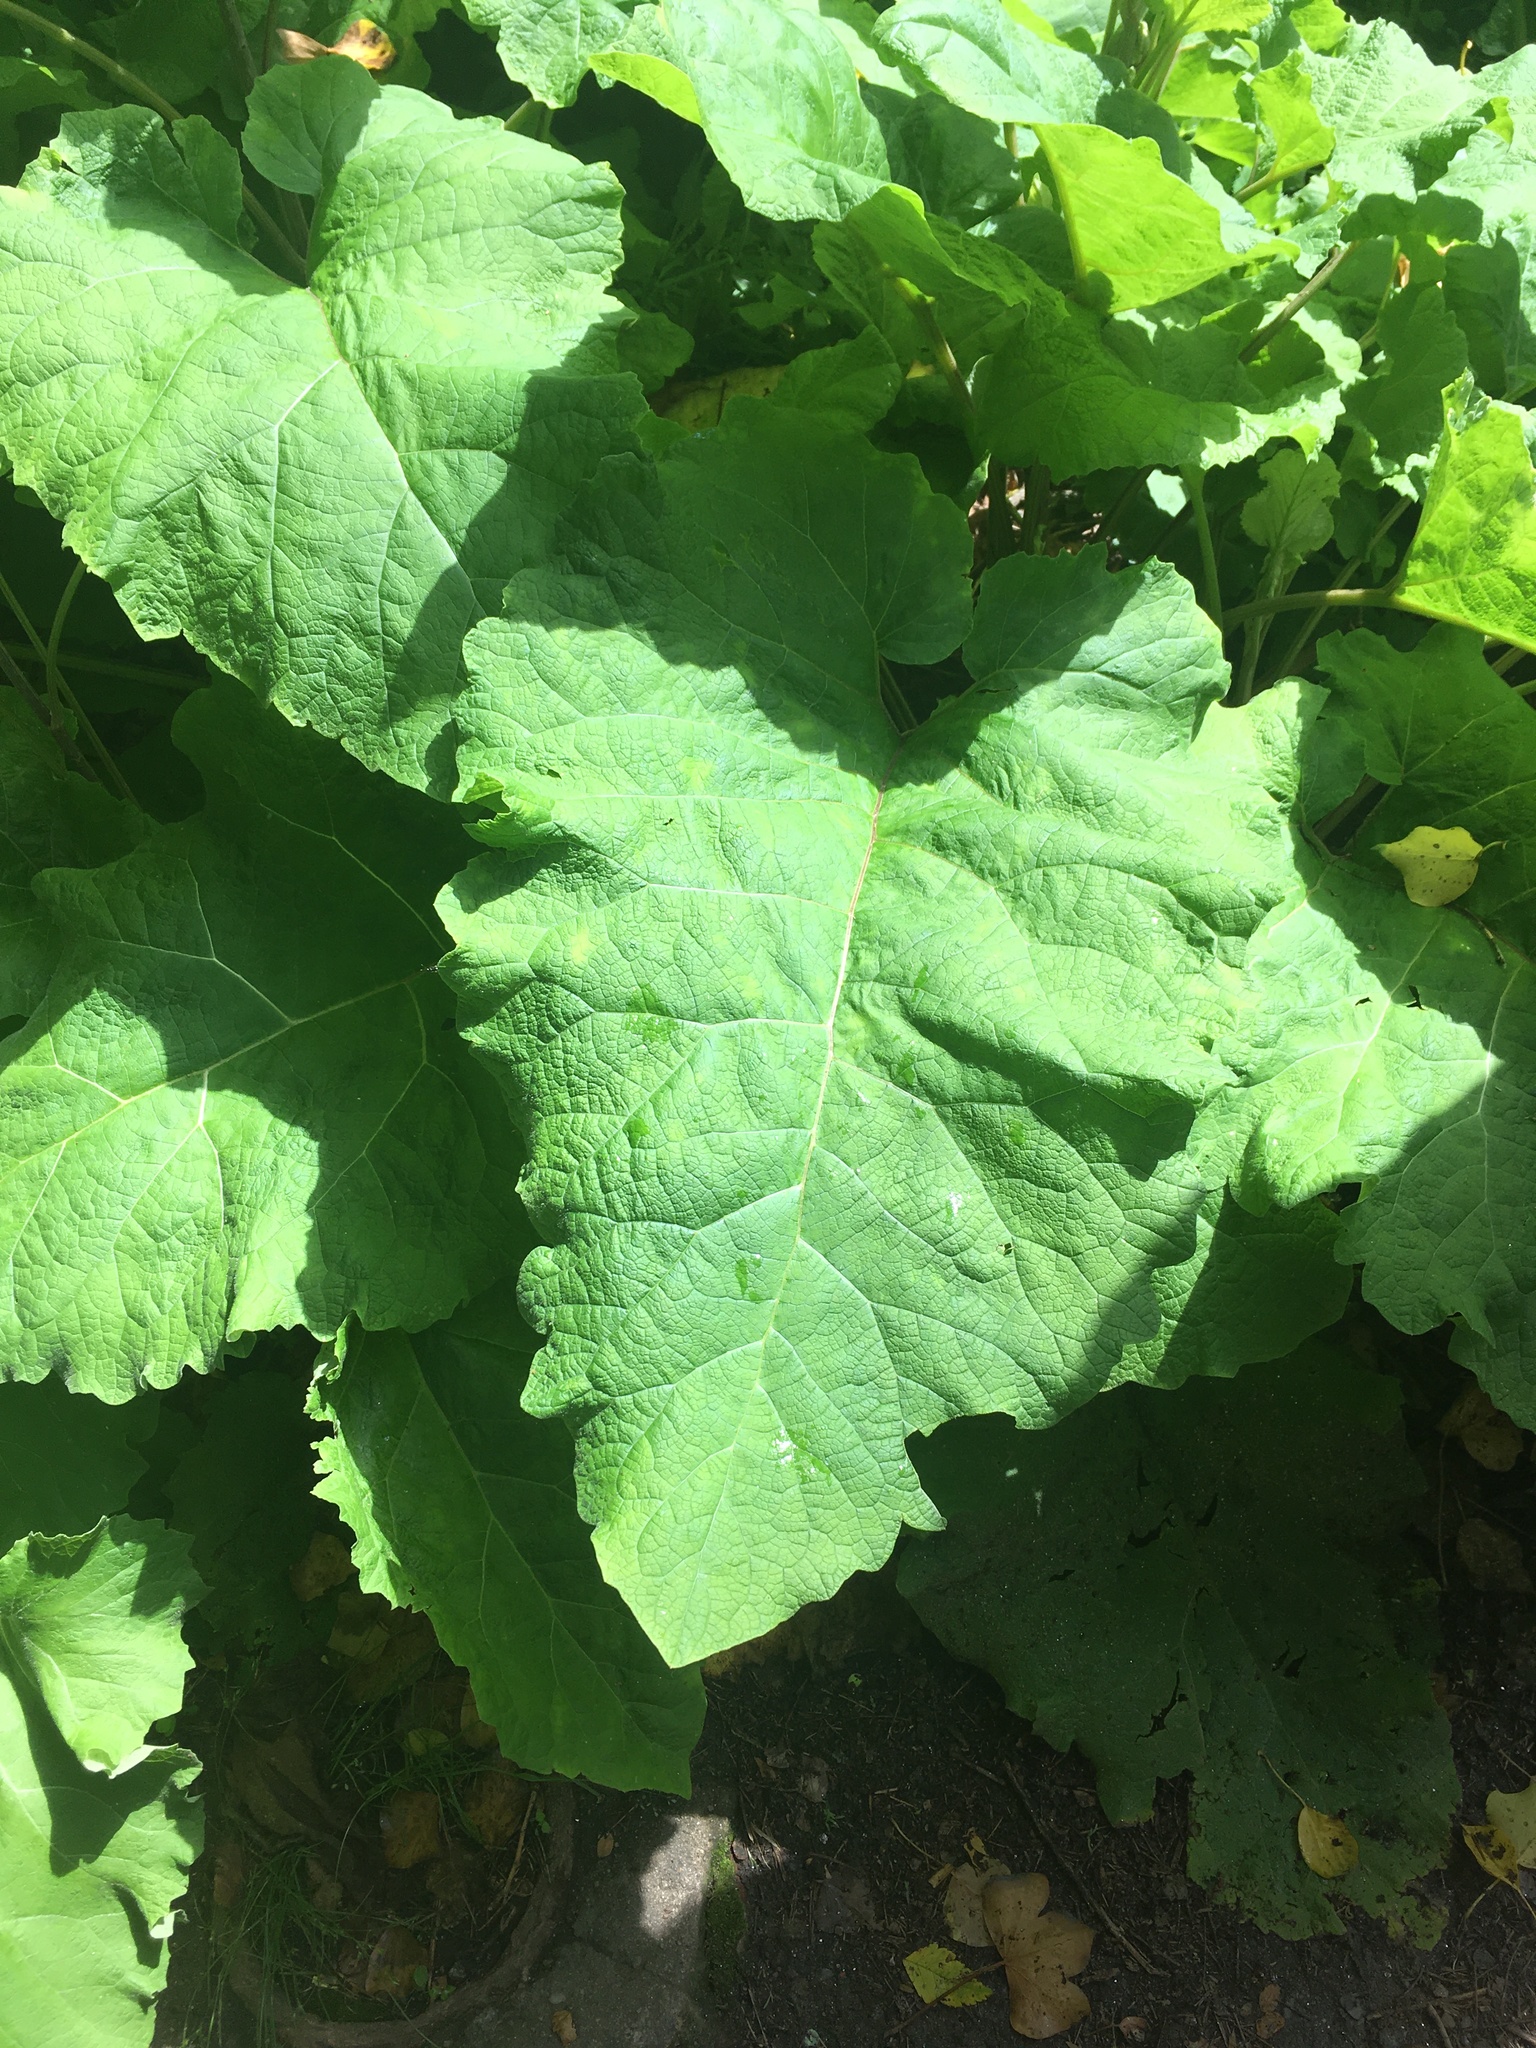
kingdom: Plantae
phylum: Tracheophyta
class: Magnoliopsida
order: Asterales
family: Asteraceae
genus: Arctium
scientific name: Arctium
